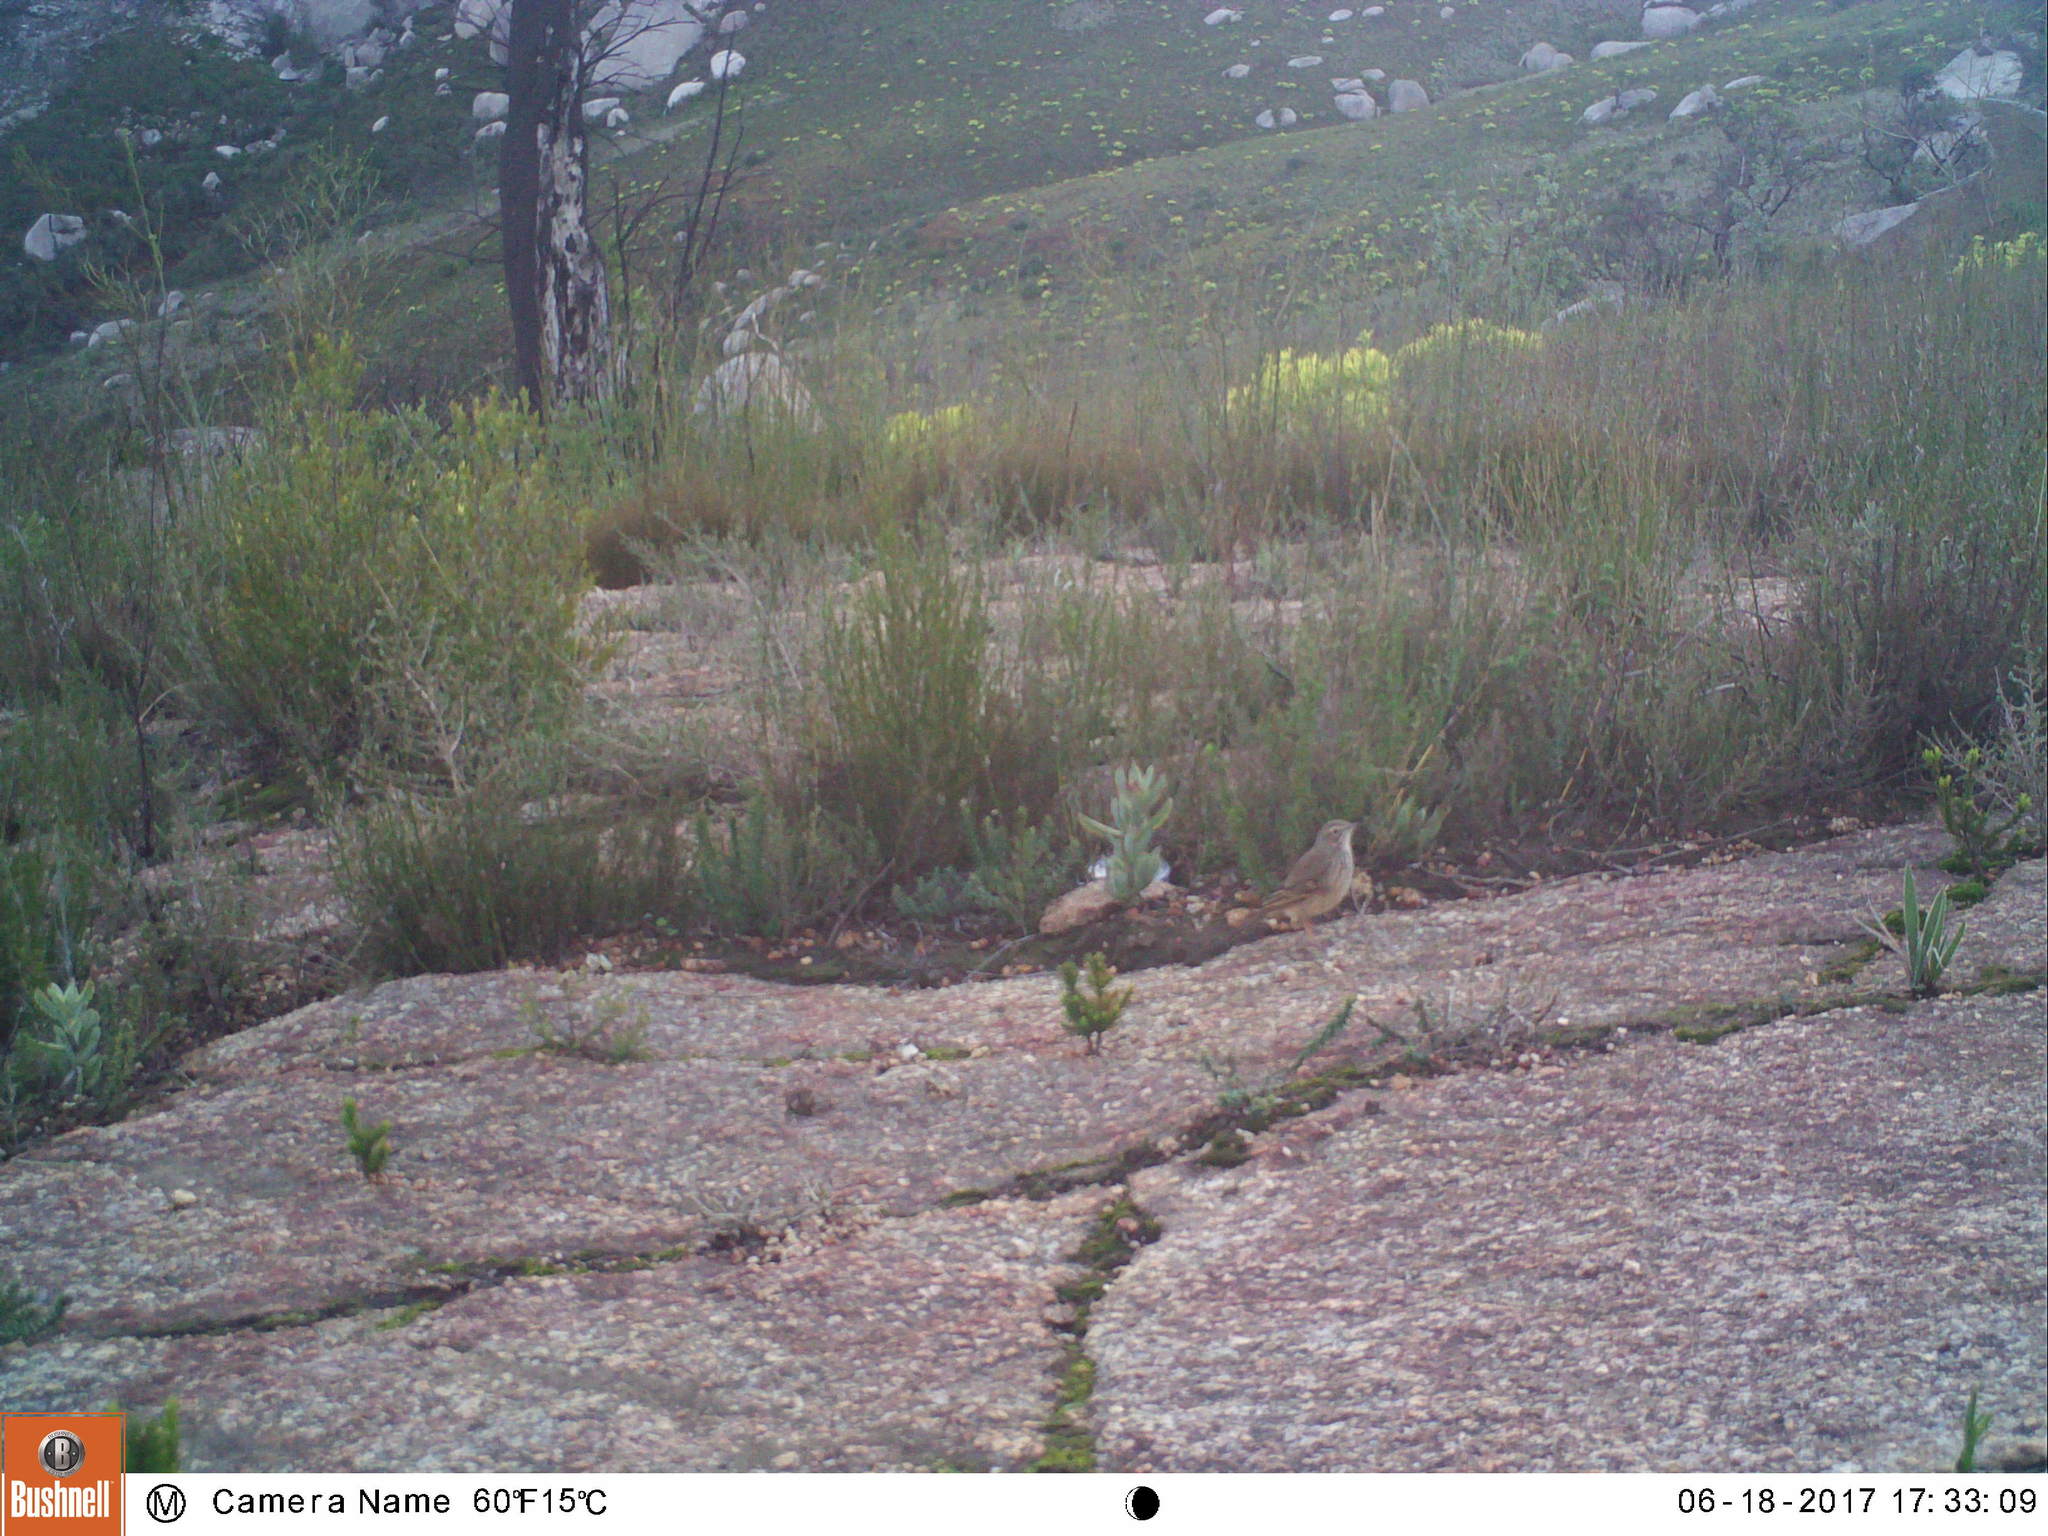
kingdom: Animalia
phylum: Chordata
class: Aves
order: Passeriformes
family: Motacillidae
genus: Anthus
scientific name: Anthus nicholsoni
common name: Nicholson's pipit
